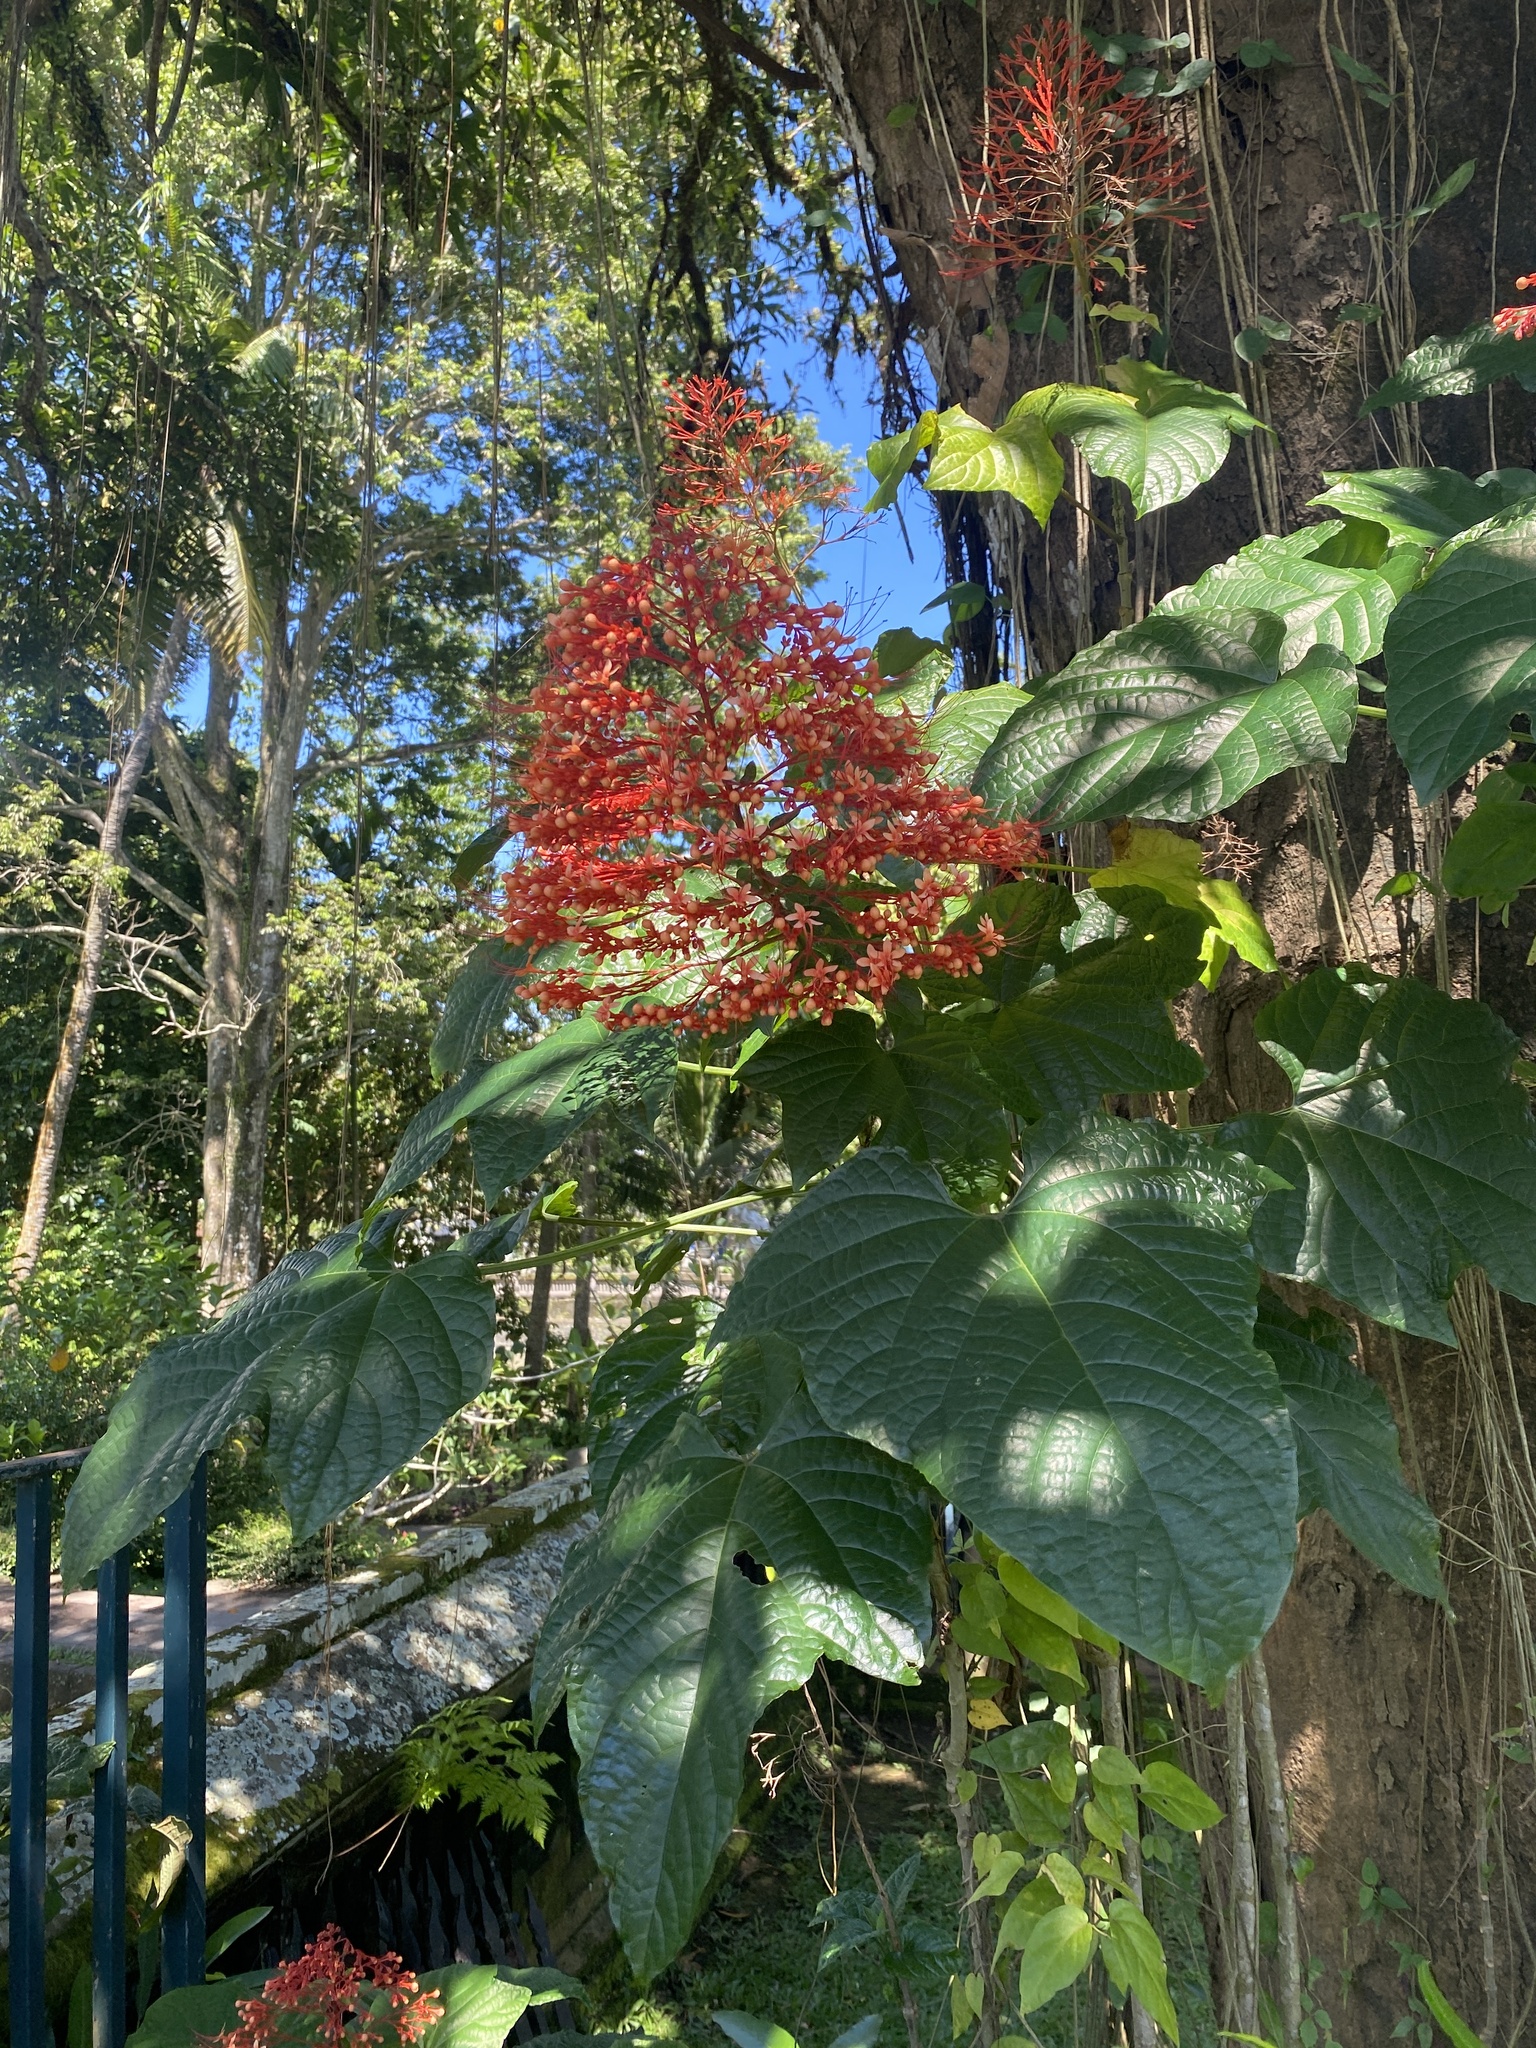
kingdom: Plantae
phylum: Tracheophyta
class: Magnoliopsida
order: Lamiales
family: Lamiaceae
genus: Clerodendrum
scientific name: Clerodendrum paniculatum
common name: Pagoda-flower
